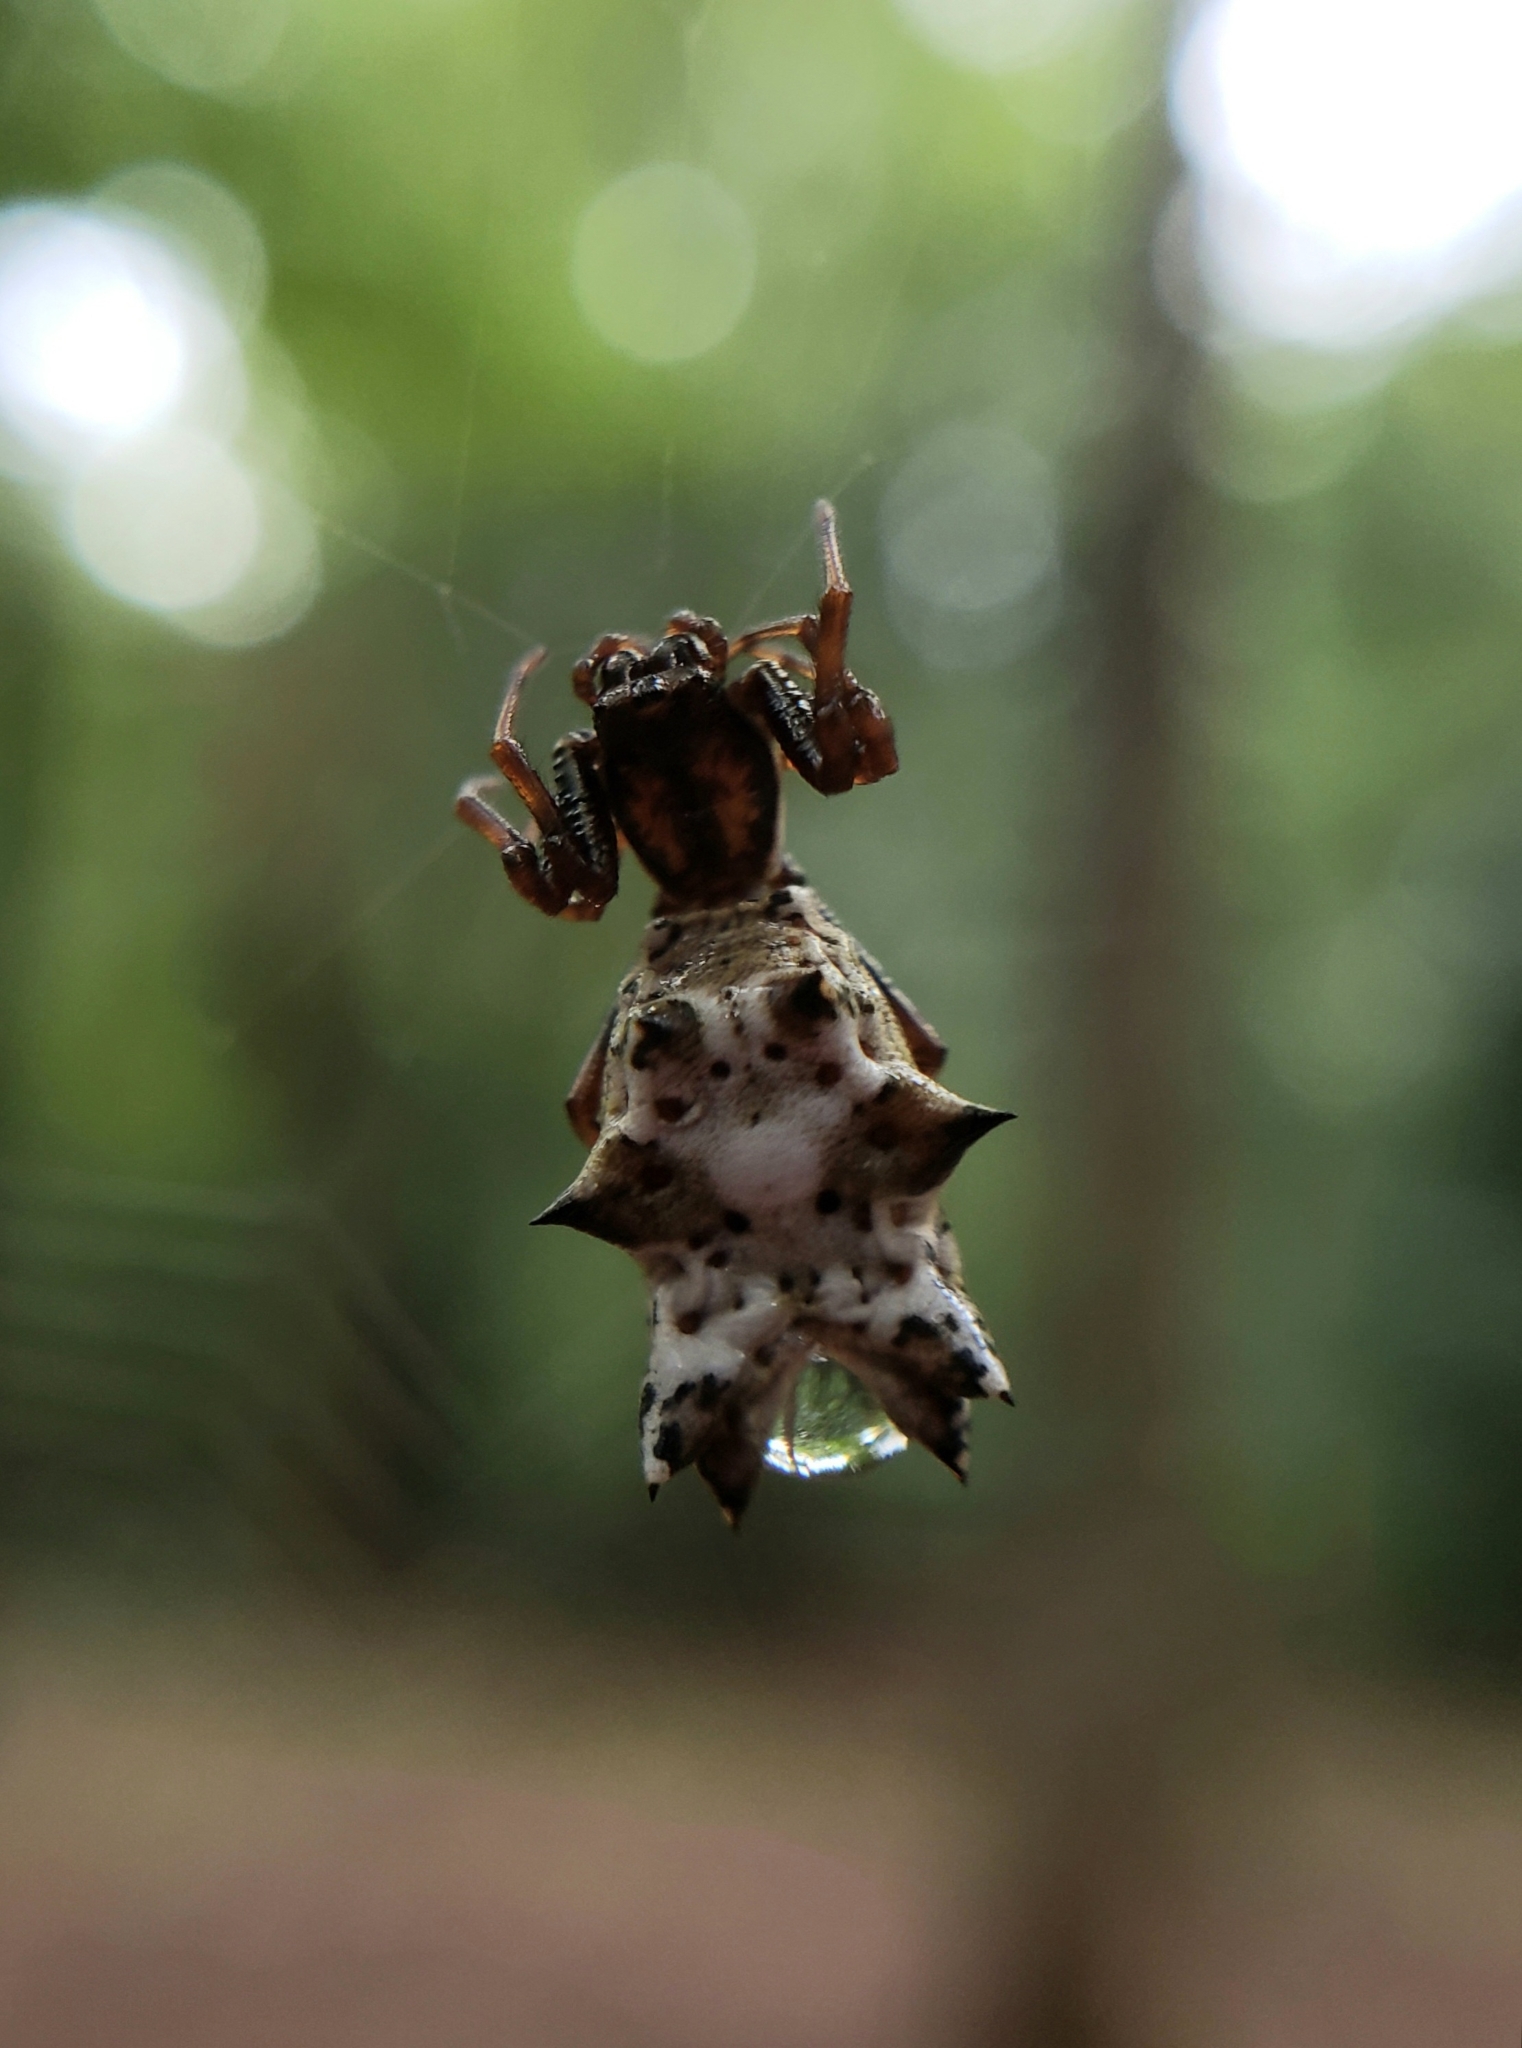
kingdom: Animalia
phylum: Arthropoda
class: Arachnida
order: Araneae
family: Araneidae
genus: Micrathena
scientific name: Micrathena gracilis
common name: Orb weavers
